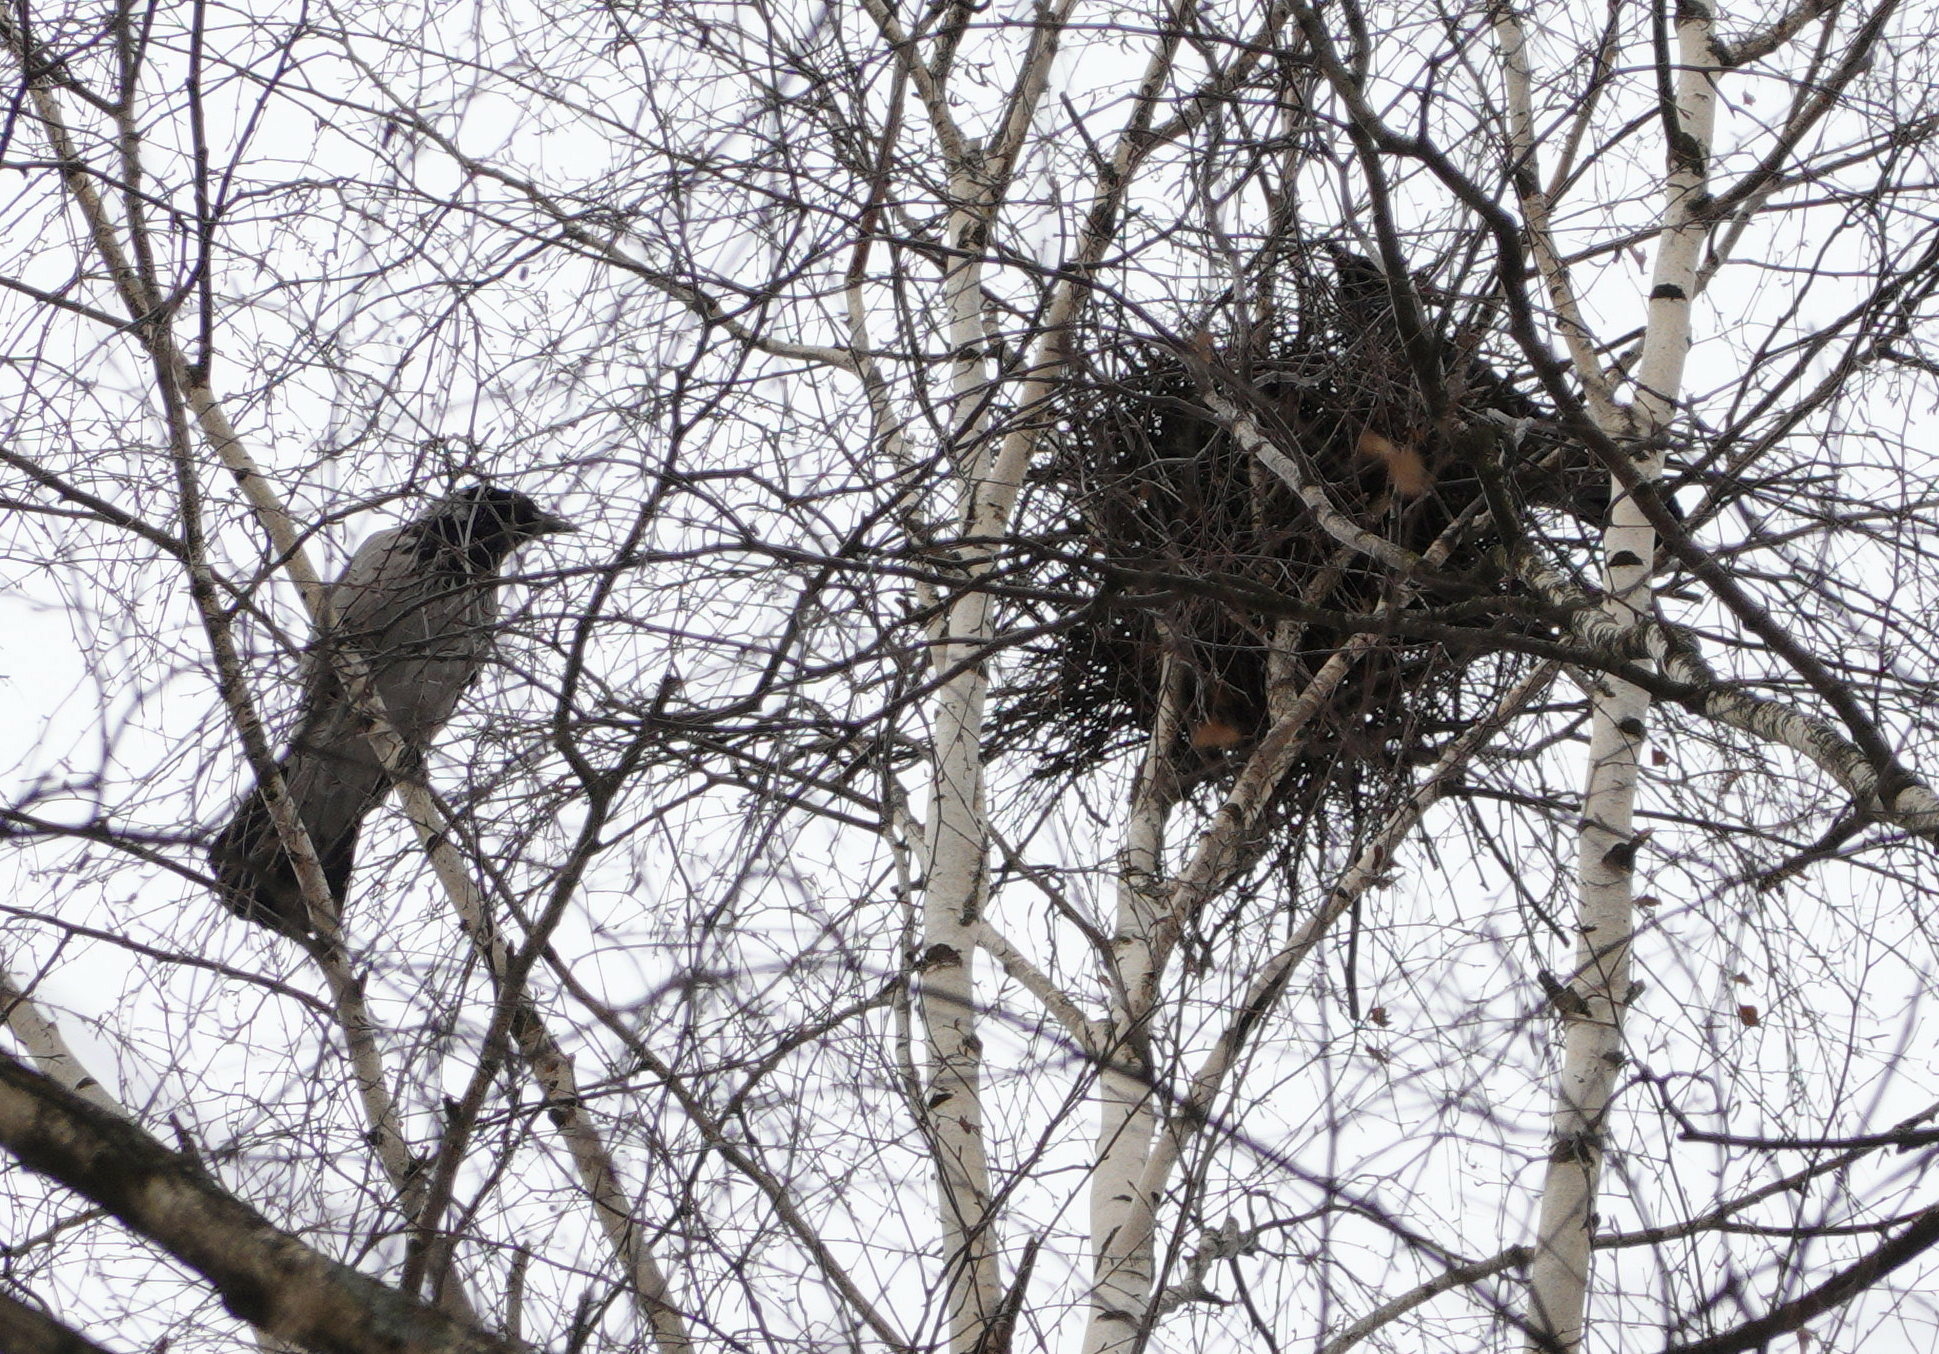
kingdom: Animalia
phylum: Chordata
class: Aves
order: Passeriformes
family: Corvidae
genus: Corvus
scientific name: Corvus cornix
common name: Hooded crow
